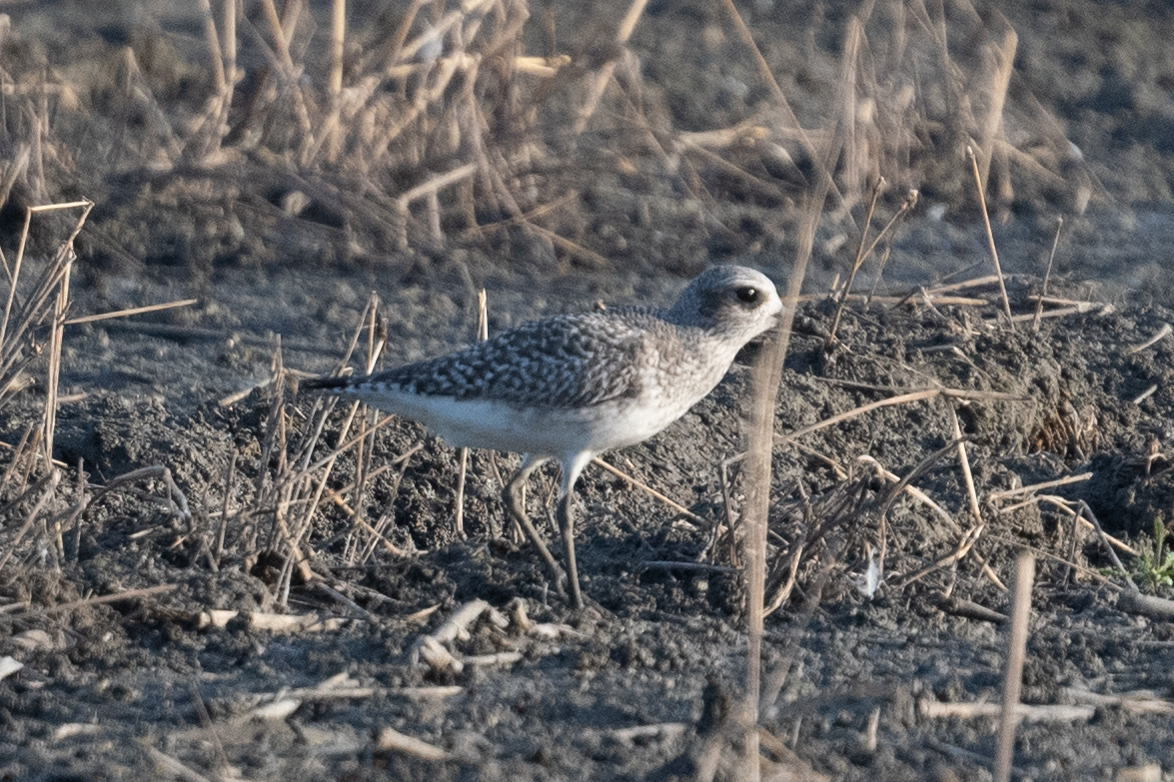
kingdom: Animalia
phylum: Chordata
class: Aves
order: Charadriiformes
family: Charadriidae
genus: Pluvialis
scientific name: Pluvialis squatarola
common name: Grey plover
